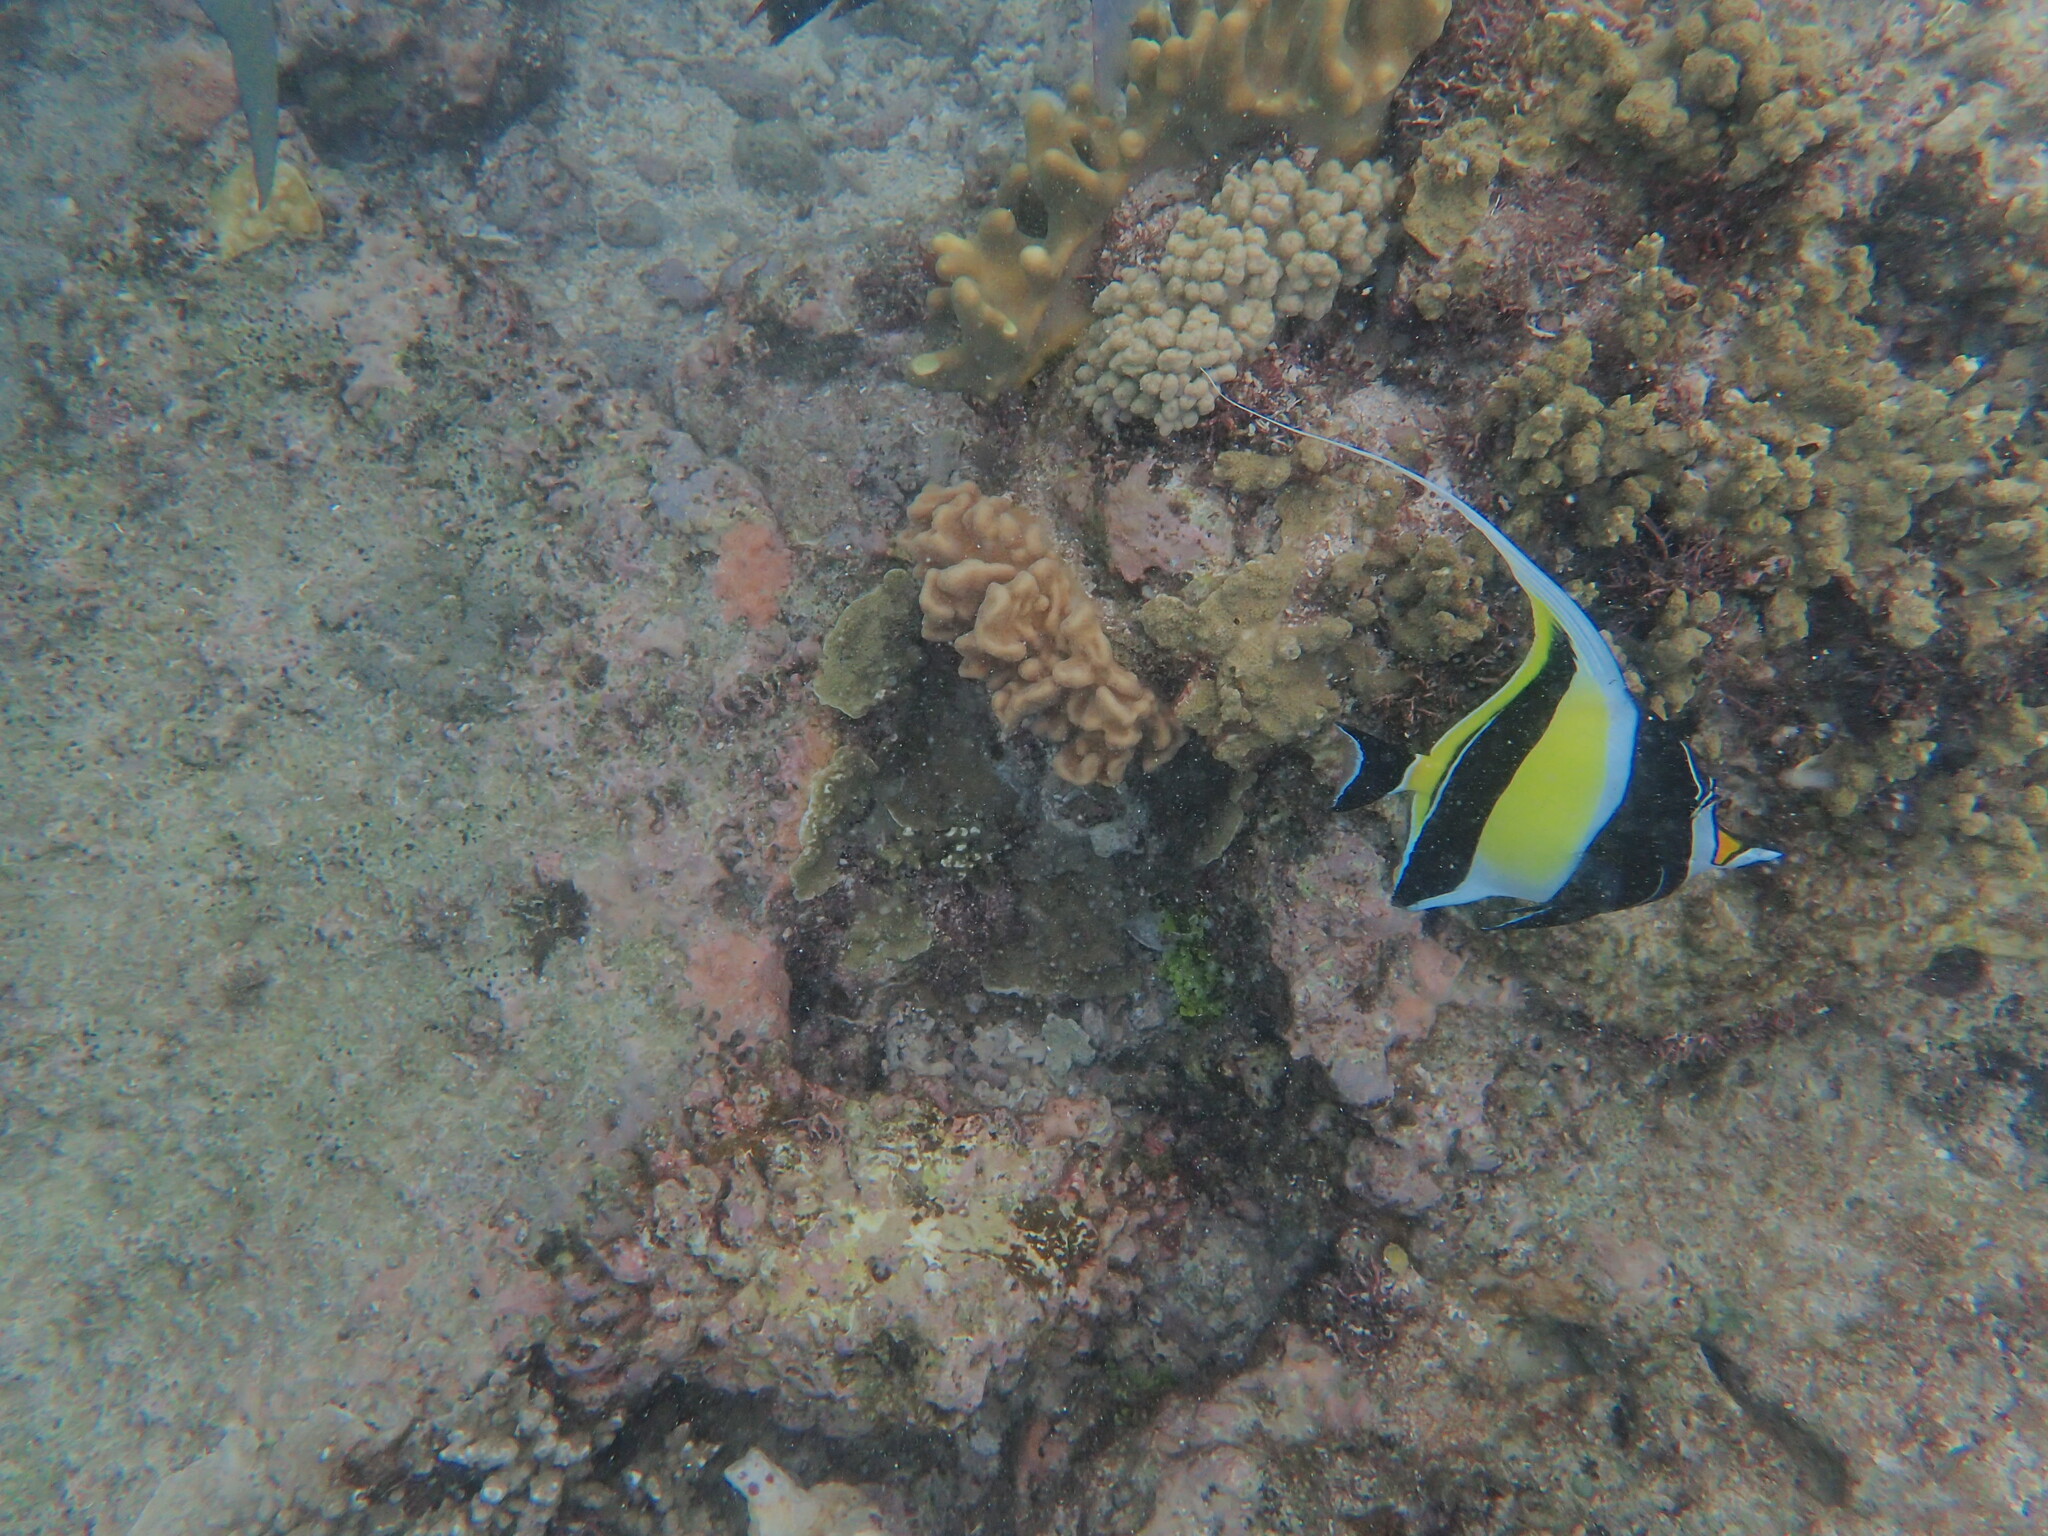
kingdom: Animalia
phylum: Chordata
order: Perciformes
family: Zanclidae
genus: Zanclus
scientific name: Zanclus cornutus
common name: Moorish idol
